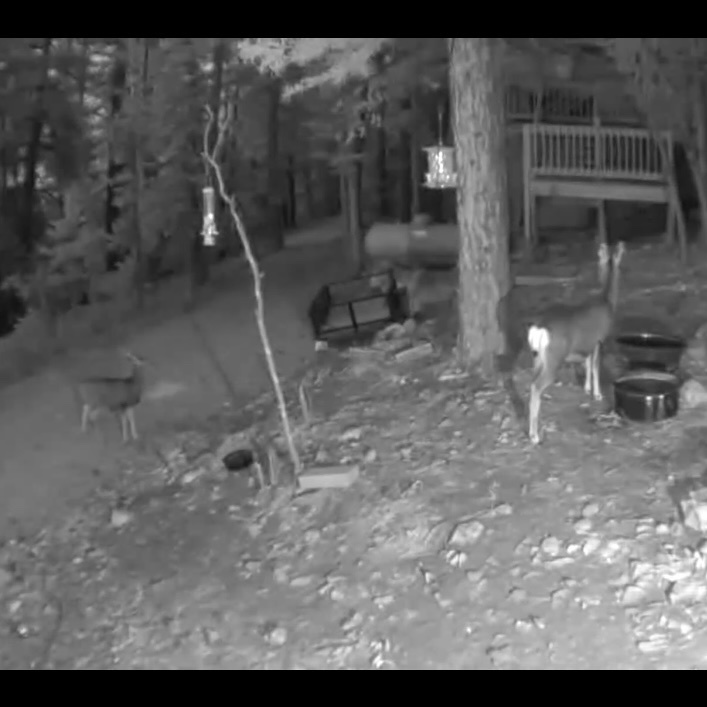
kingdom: Animalia
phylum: Chordata
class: Mammalia
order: Artiodactyla
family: Cervidae
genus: Odocoileus
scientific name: Odocoileus hemionus
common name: Mule deer
